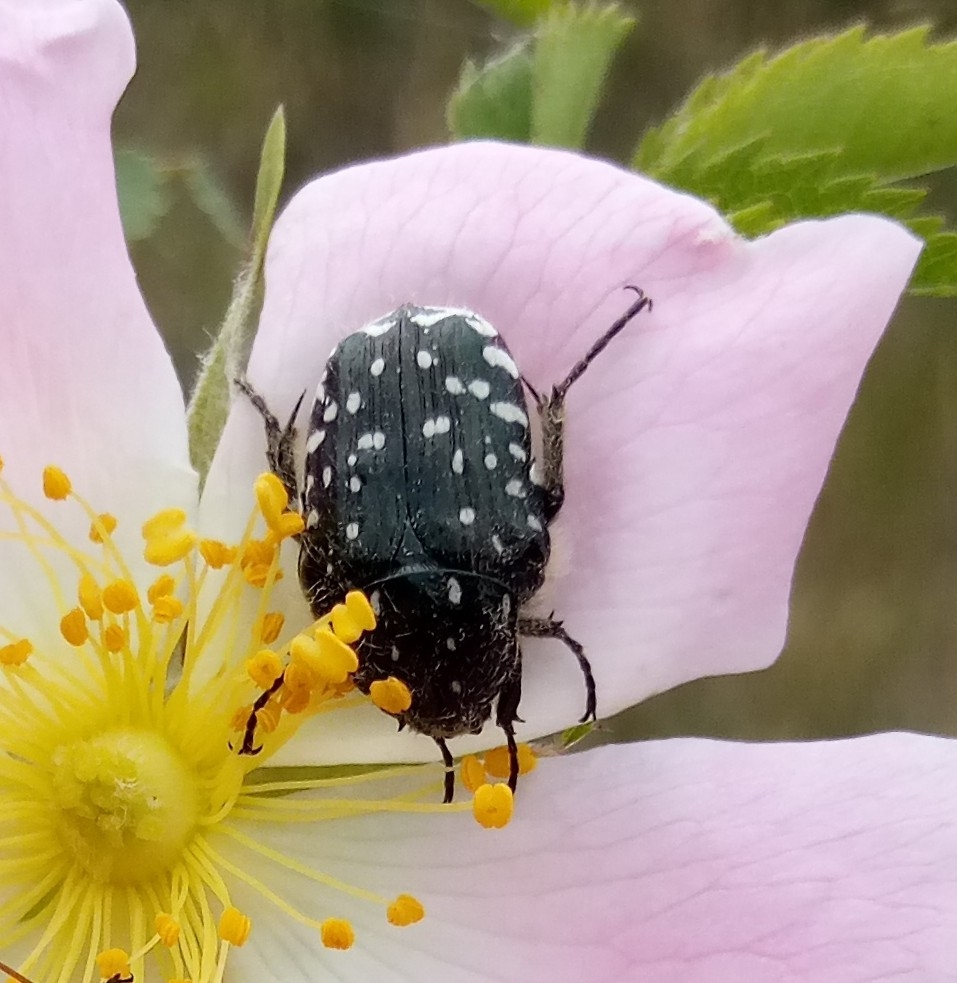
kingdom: Animalia
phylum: Arthropoda
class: Insecta
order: Coleoptera
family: Scarabaeidae
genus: Oxythyrea
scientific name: Oxythyrea funesta
